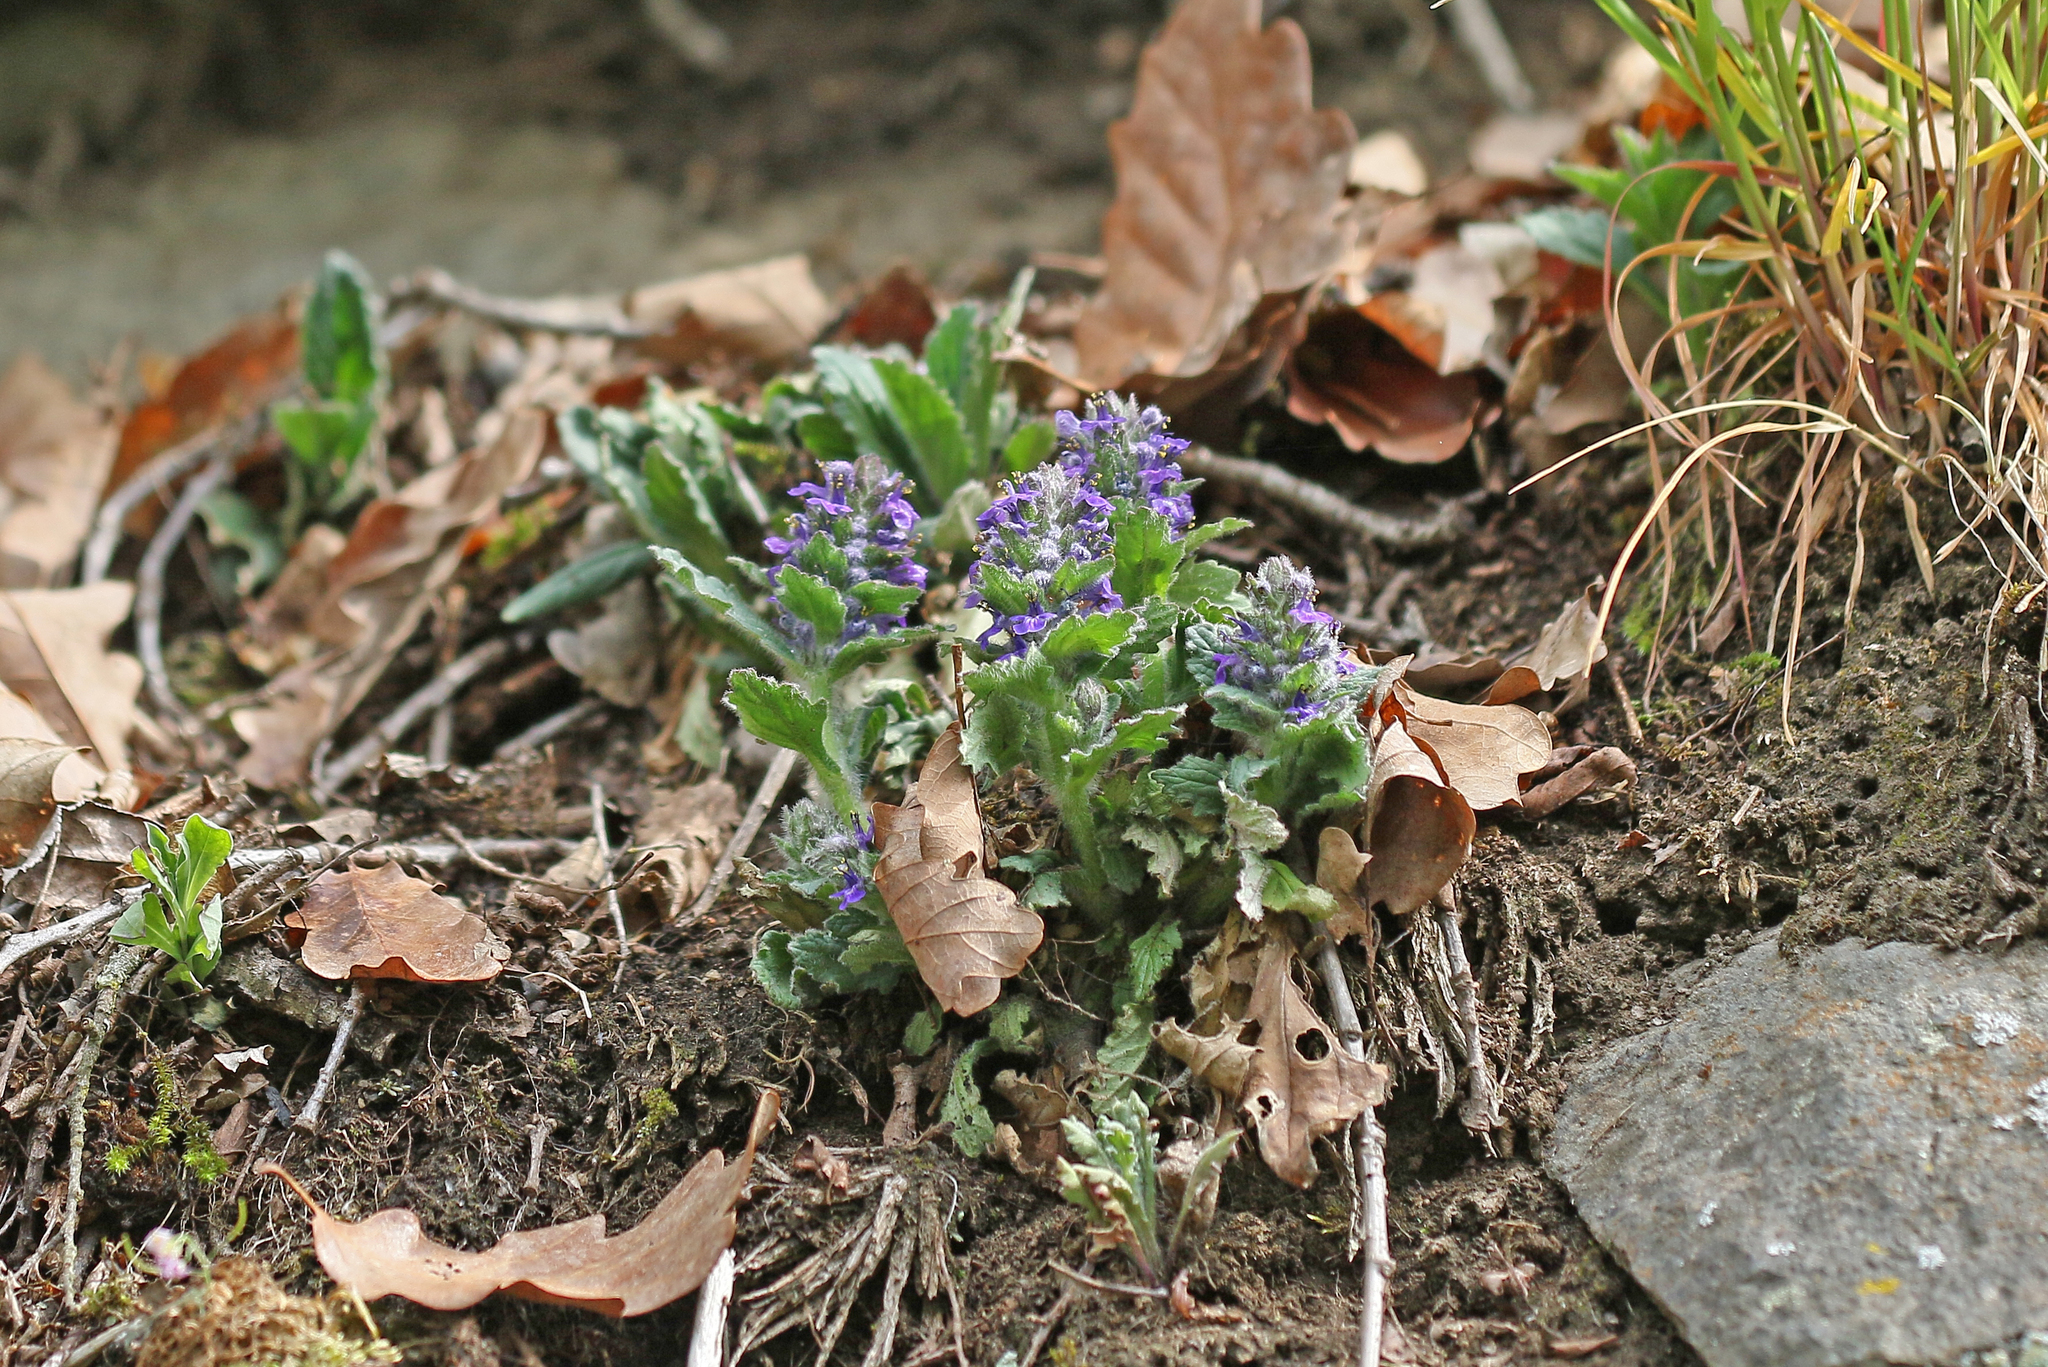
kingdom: Plantae
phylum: Tracheophyta
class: Magnoliopsida
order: Lamiales
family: Lamiaceae
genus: Ajuga
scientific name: Ajuga genevensis
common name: Blue bugle
